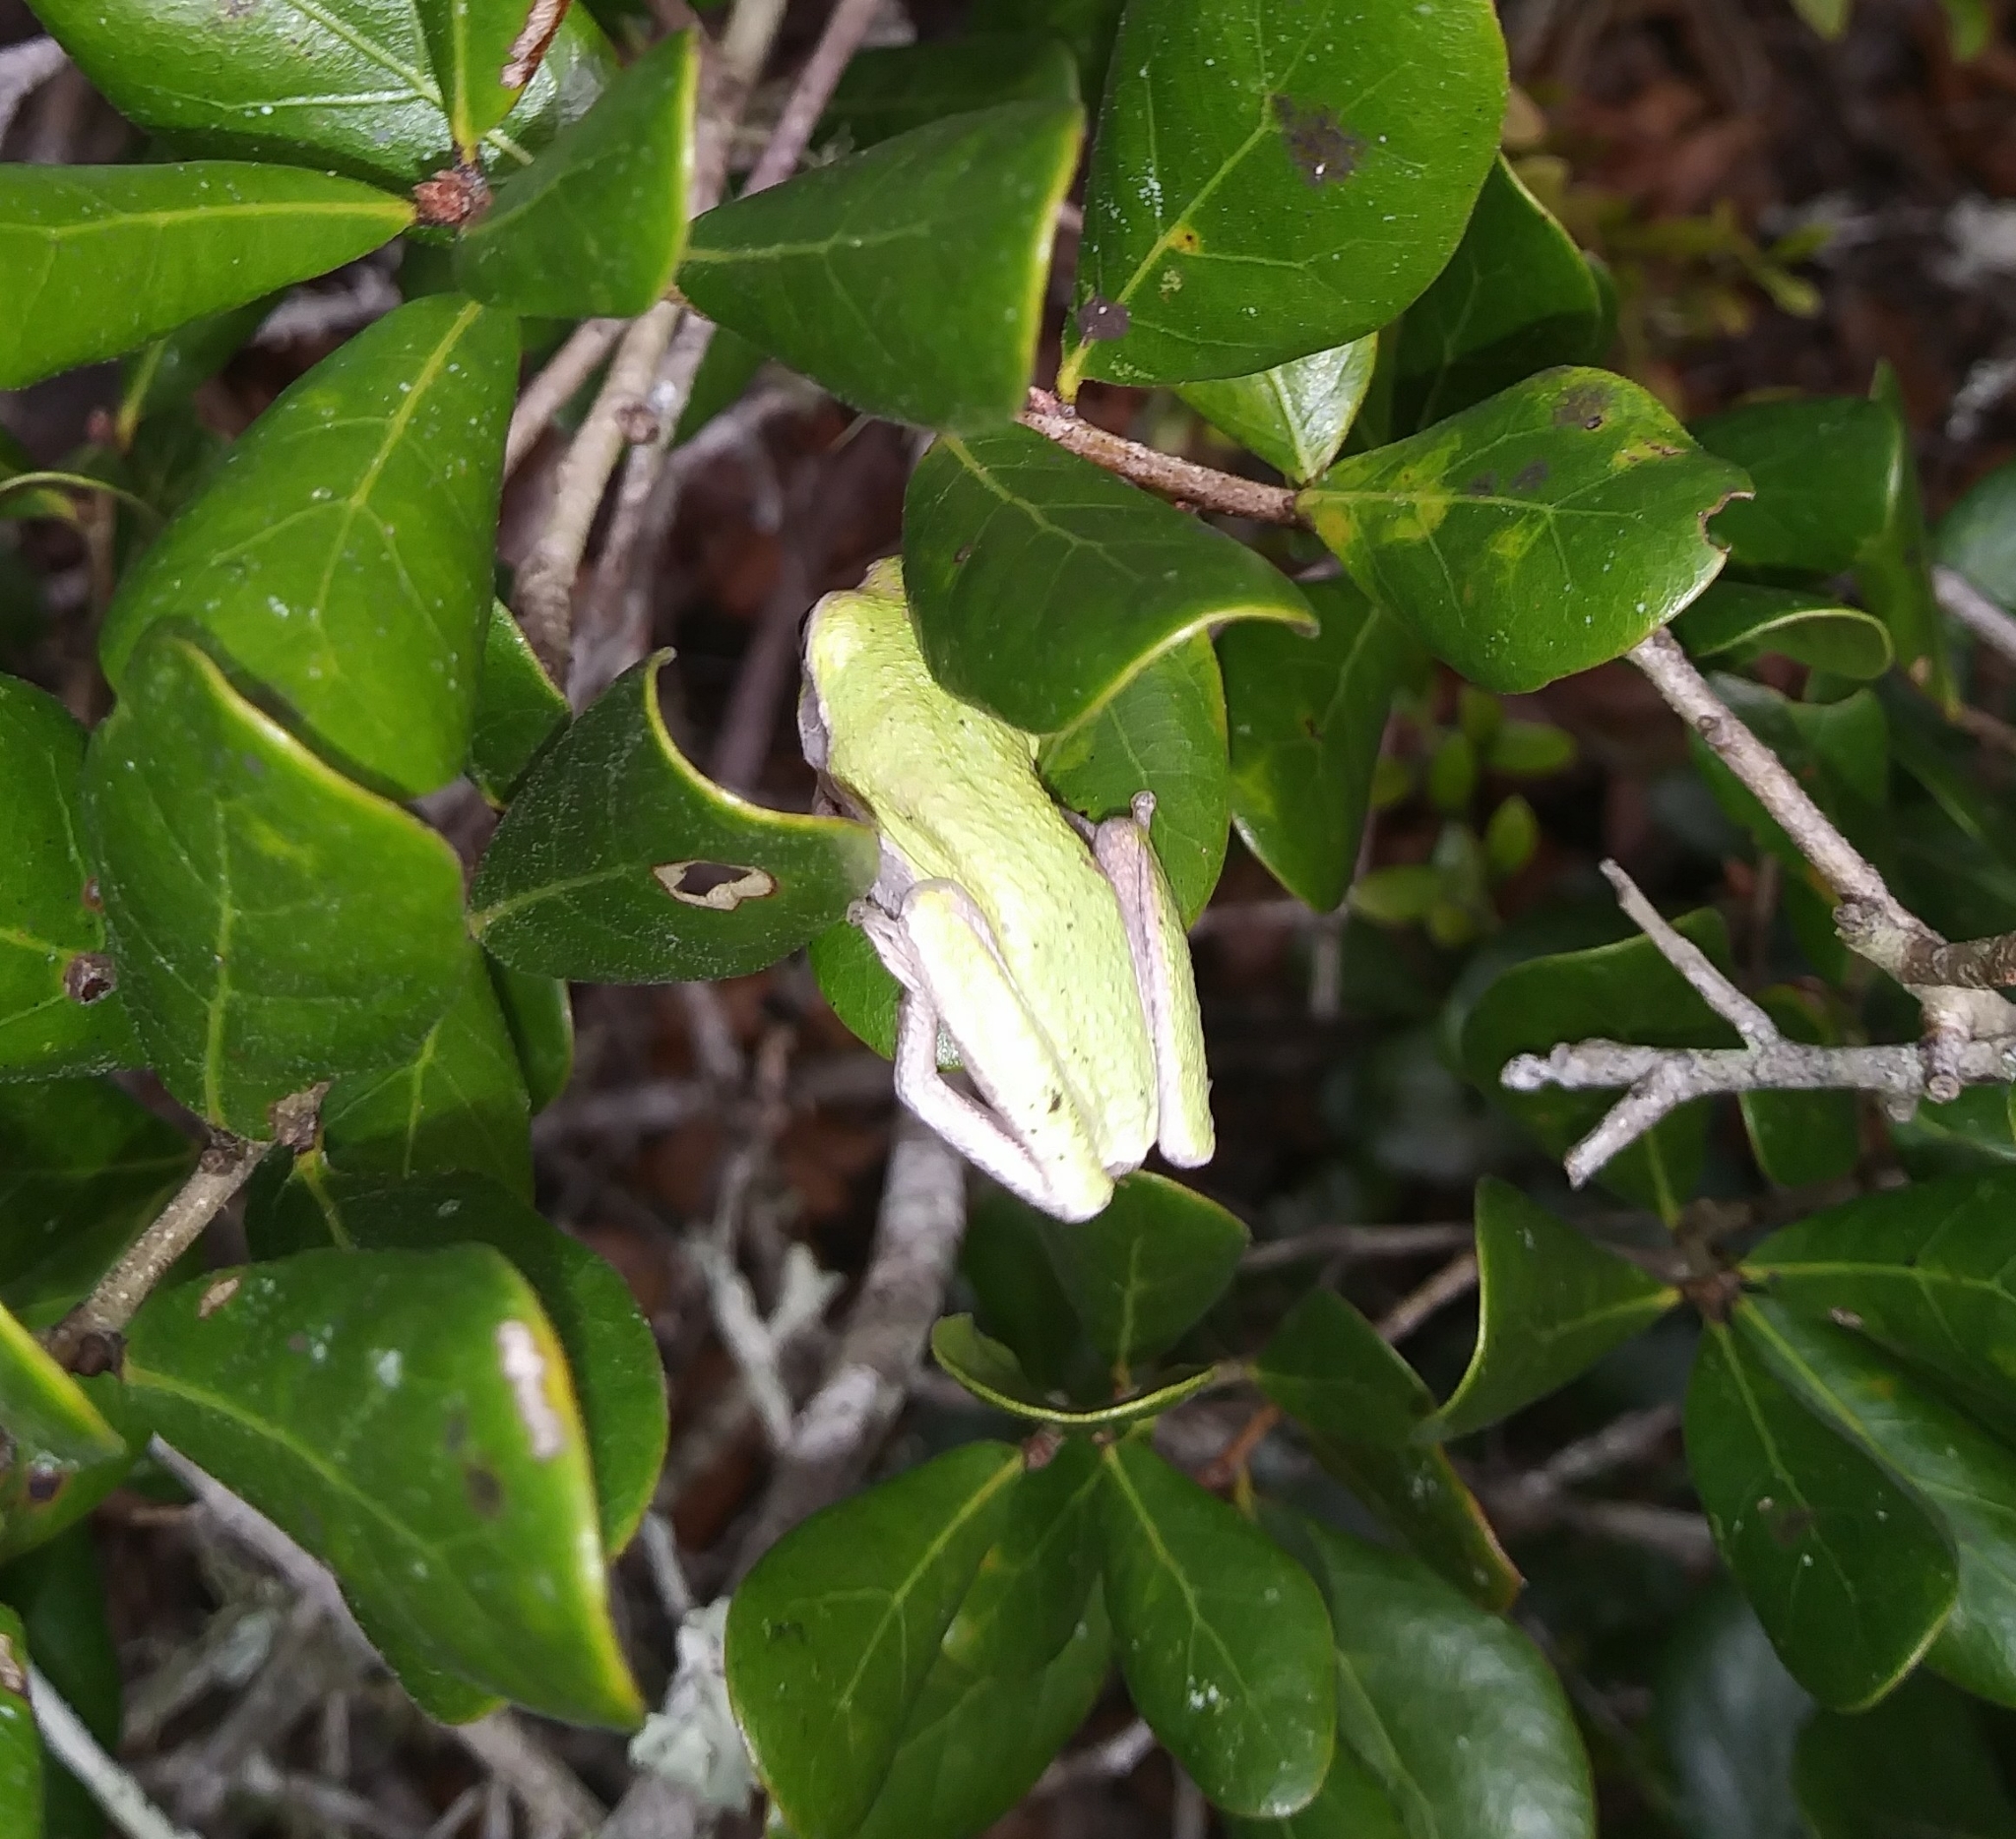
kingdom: Animalia
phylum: Chordata
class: Amphibia
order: Anura
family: Hylidae
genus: Hyla
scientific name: Hyla femoralis
